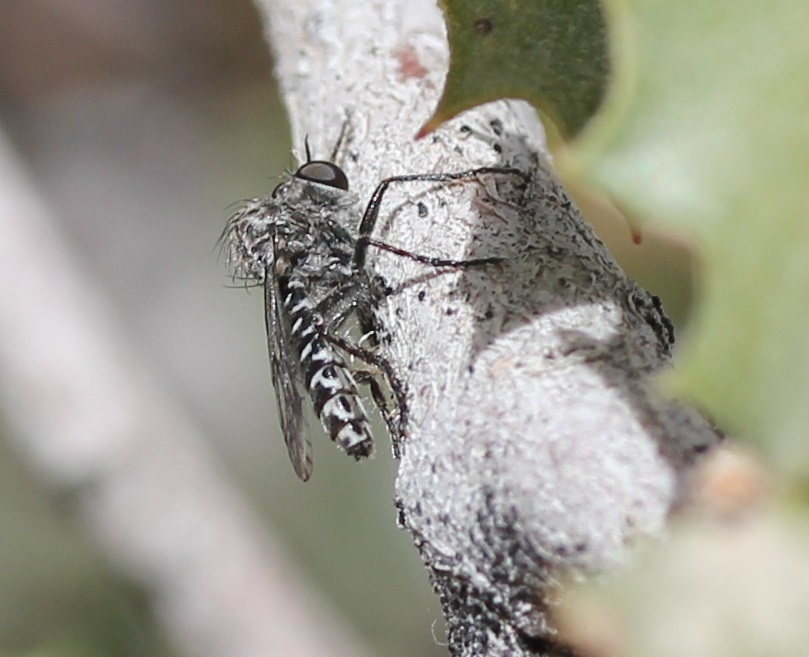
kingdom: Animalia
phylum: Arthropoda
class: Insecta
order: Diptera
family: Asilidae
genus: Metapogon
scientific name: Metapogon carinatus
